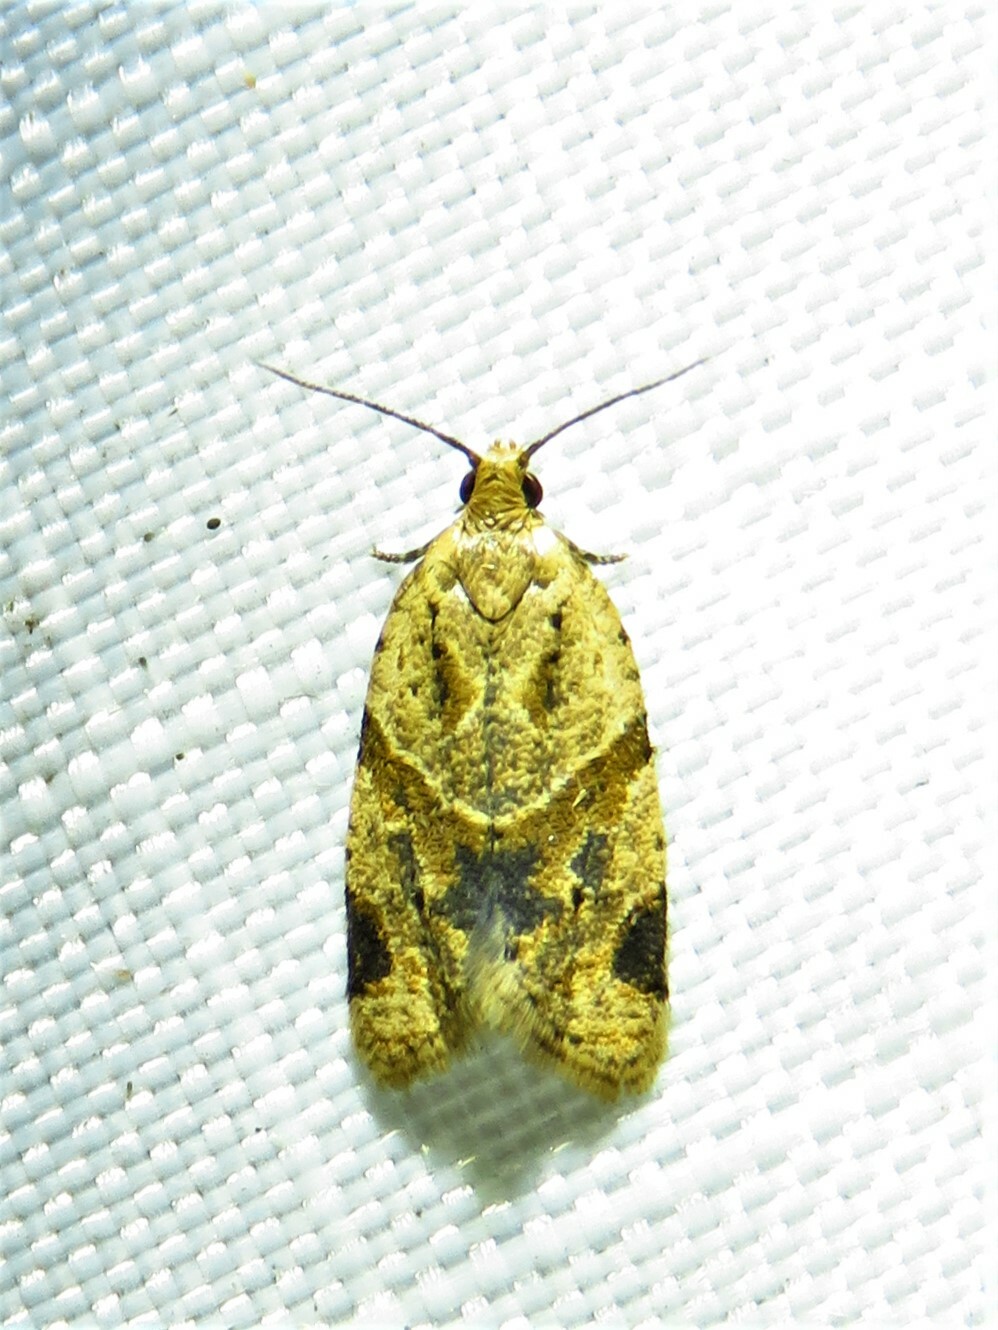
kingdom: Animalia
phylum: Arthropoda
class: Insecta
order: Lepidoptera
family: Tortricidae
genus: Clepsis
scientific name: Clepsis peritana
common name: Garden tortrix
